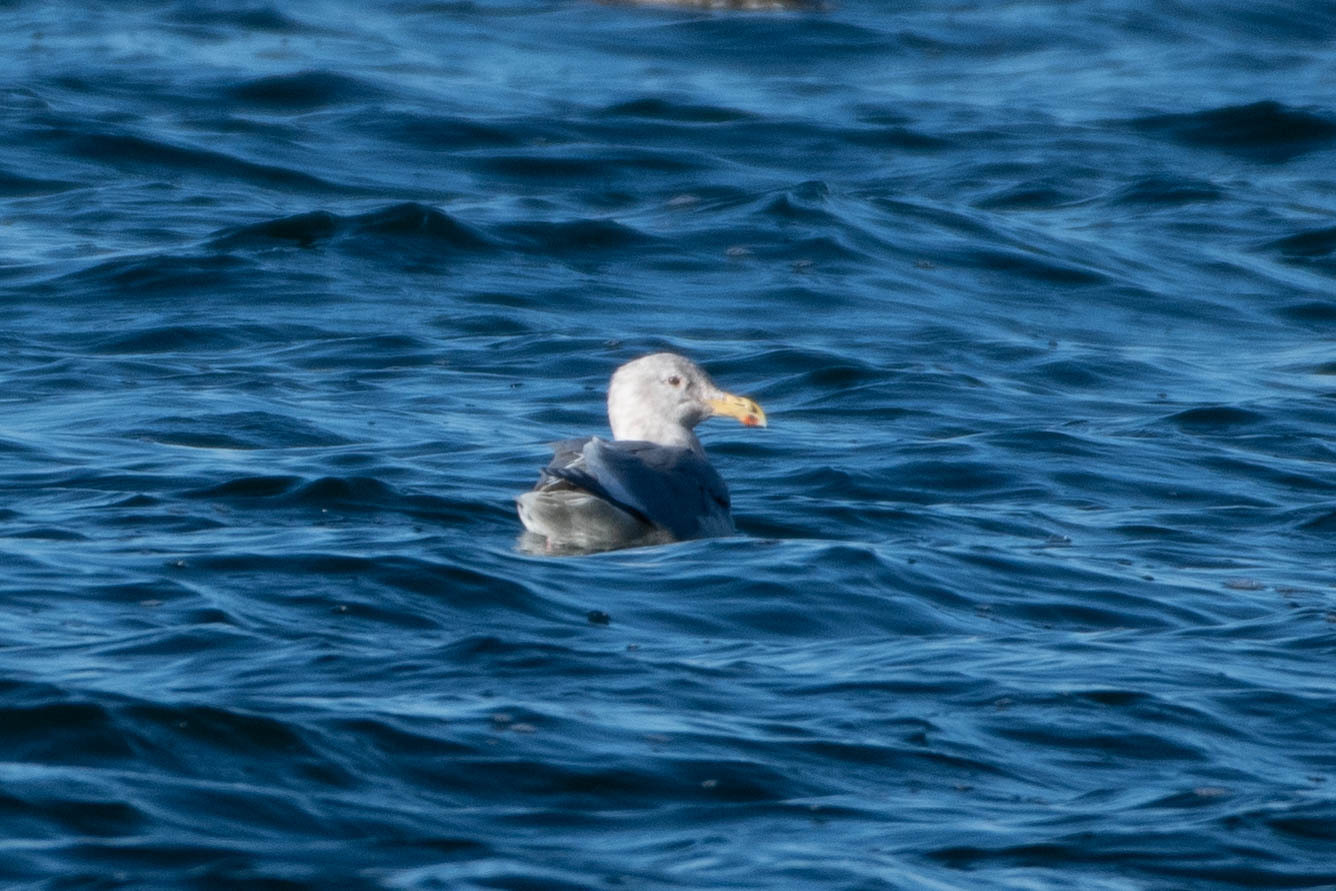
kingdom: Animalia
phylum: Chordata
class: Aves
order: Charadriiformes
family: Laridae
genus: Larus
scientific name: Larus
